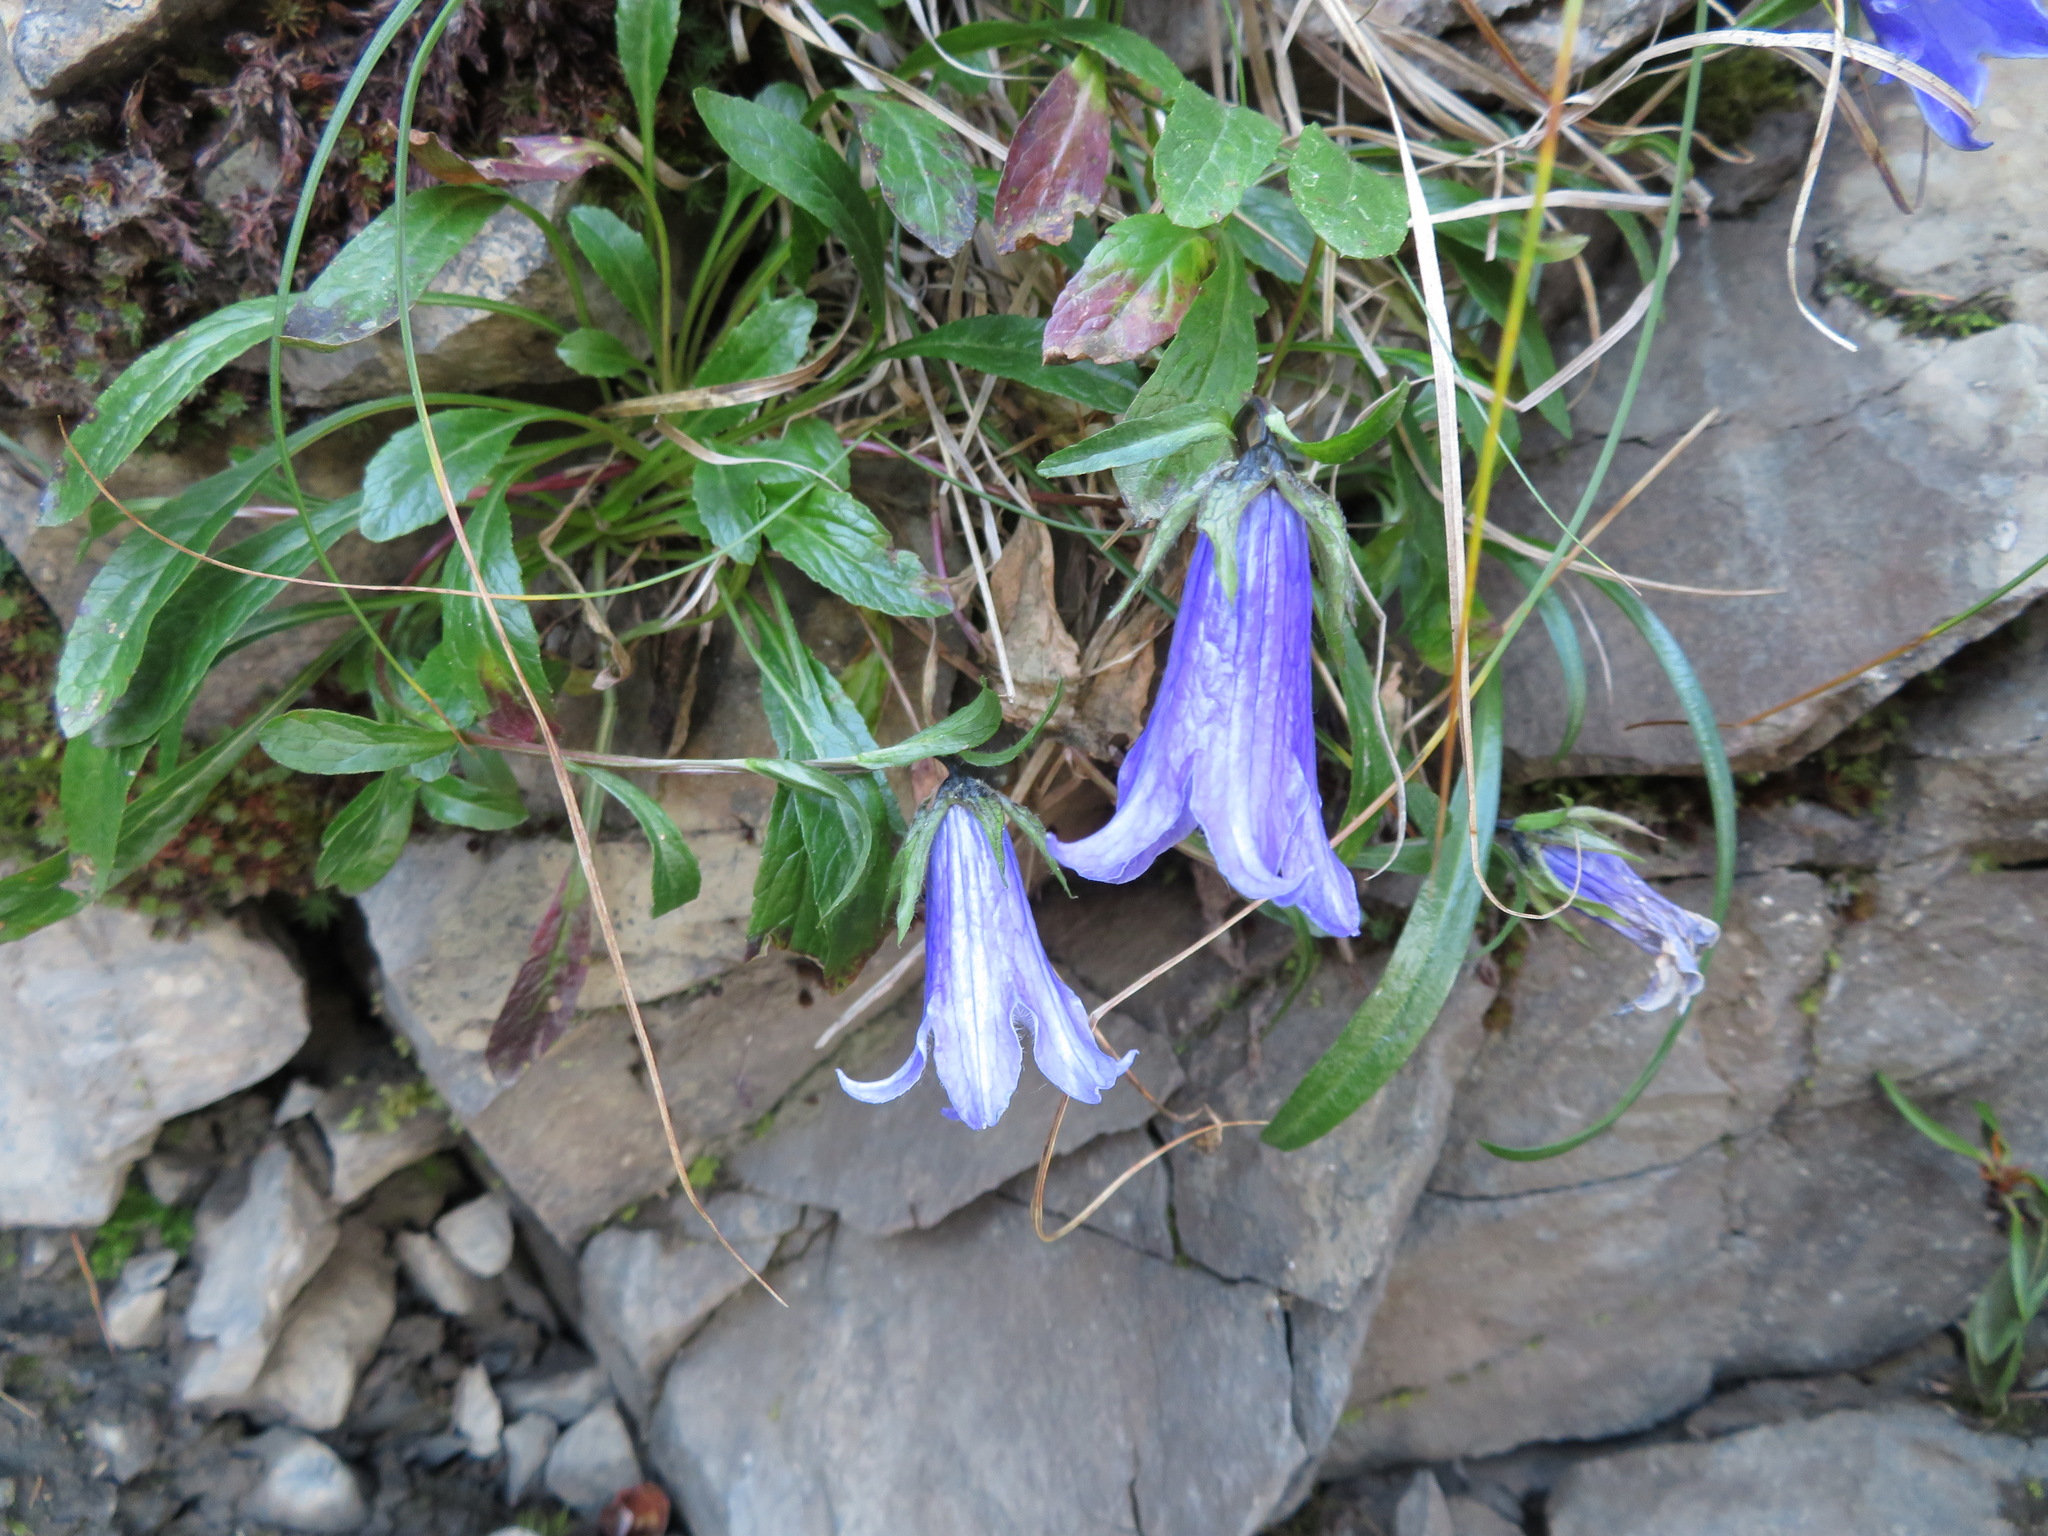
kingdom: Plantae
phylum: Tracheophyta
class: Magnoliopsida
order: Asterales
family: Campanulaceae
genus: Campanula
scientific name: Campanula dasyantha
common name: Hairyflower bellflower
